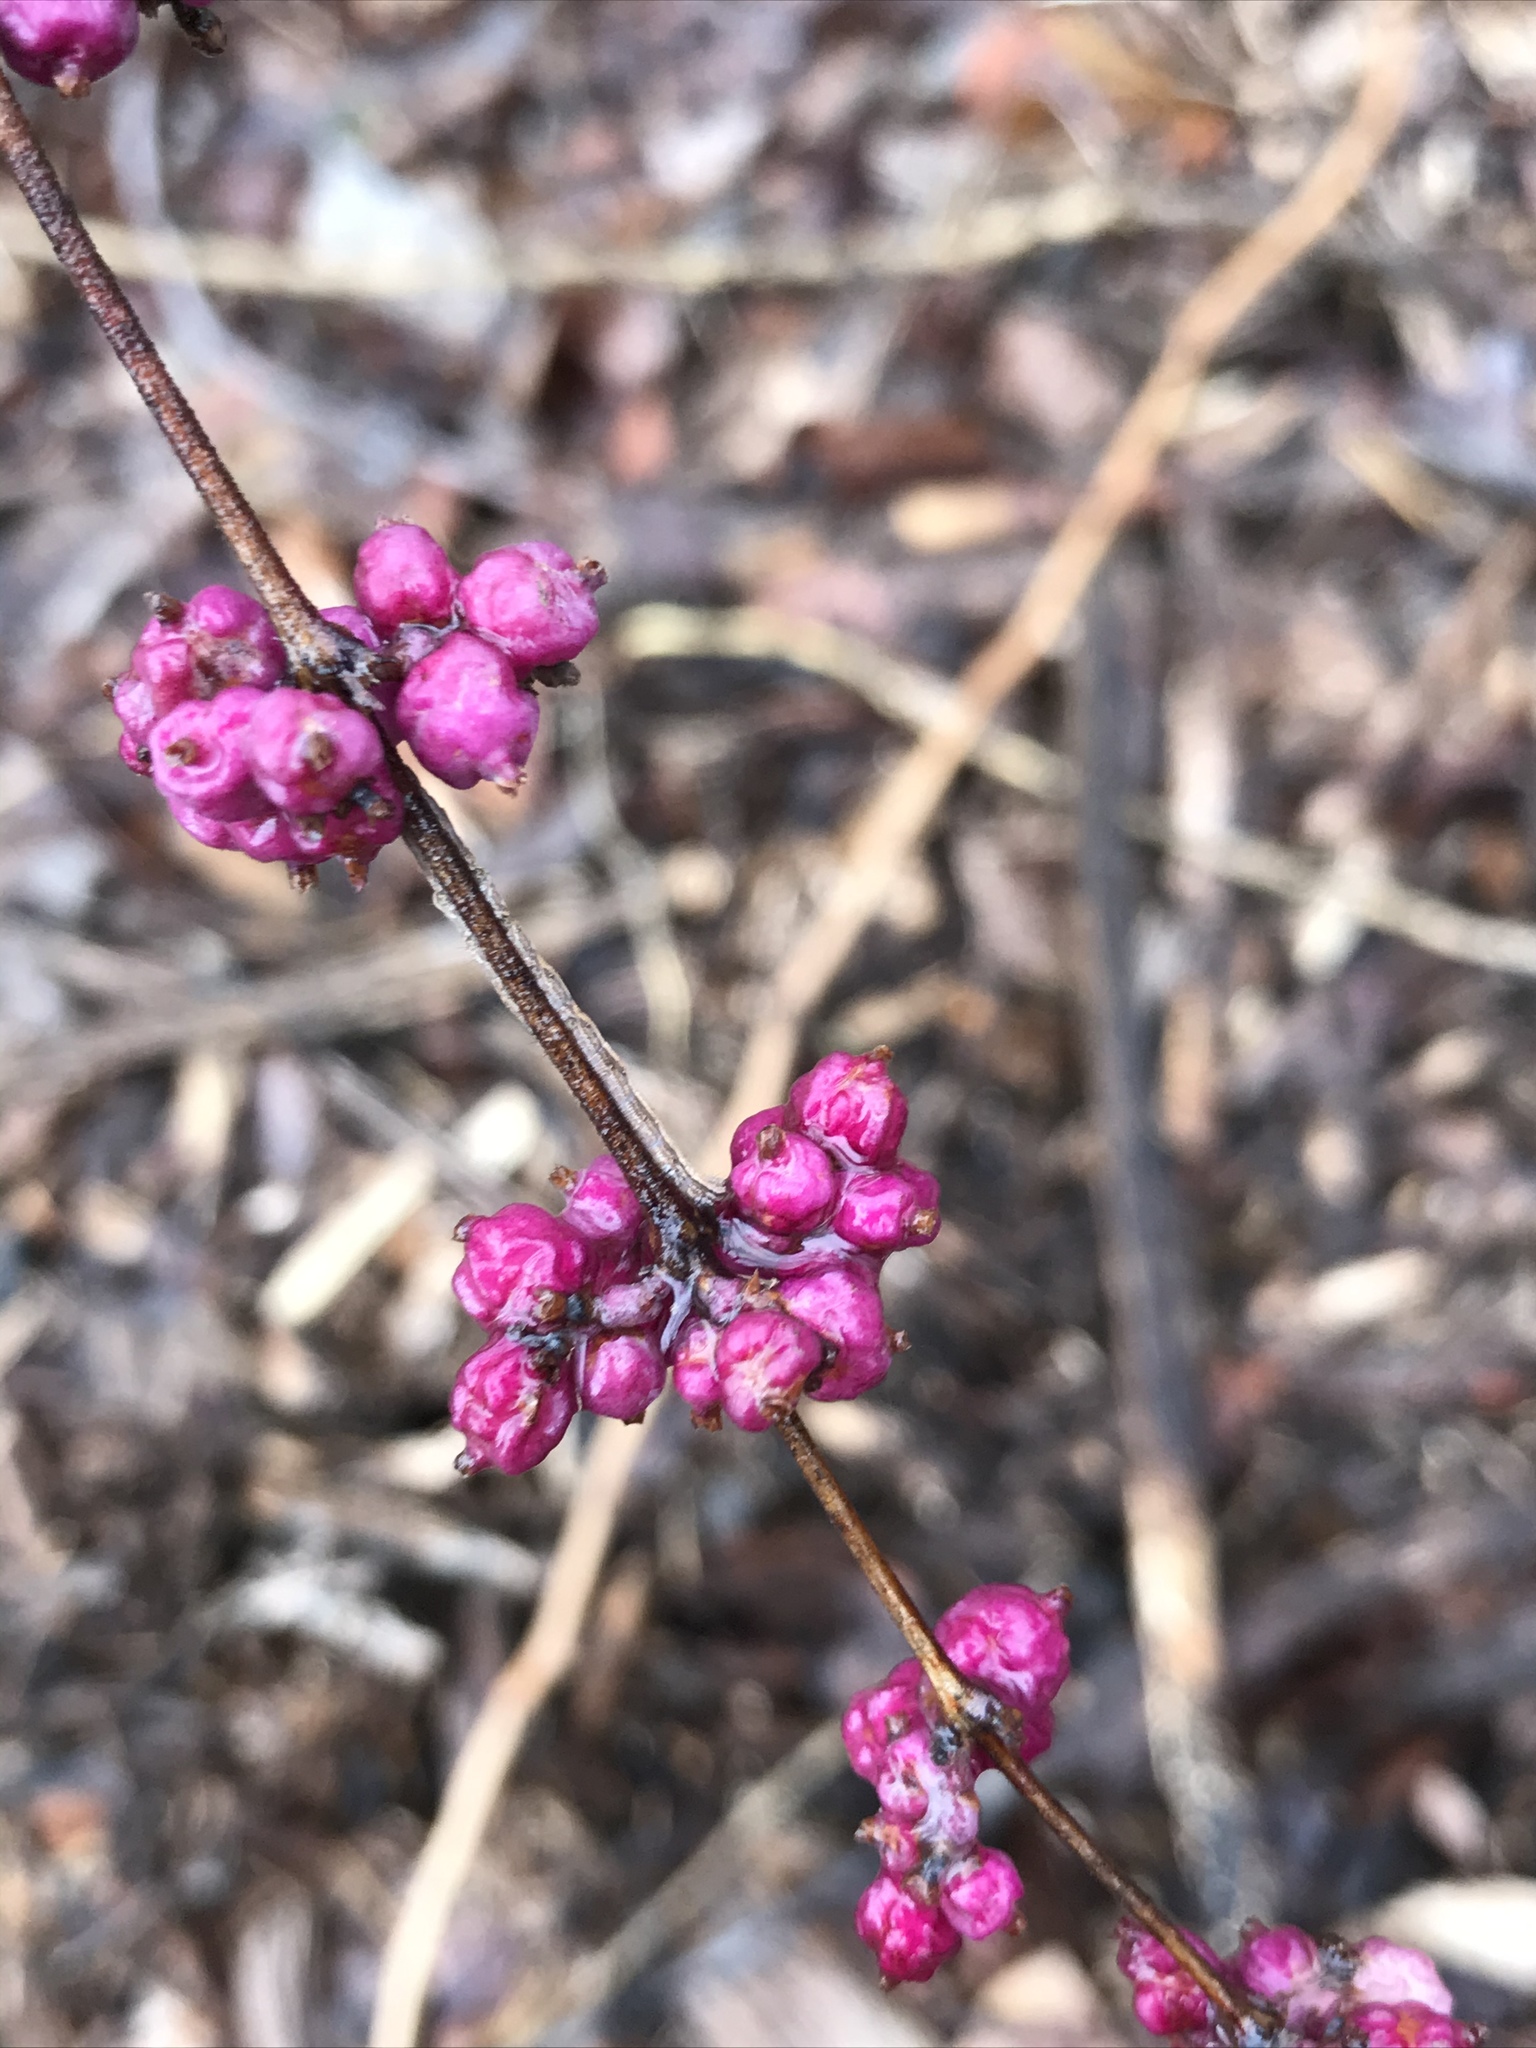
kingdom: Plantae
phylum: Tracheophyta
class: Magnoliopsida
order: Dipsacales
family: Caprifoliaceae
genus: Symphoricarpos
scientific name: Symphoricarpos orbiculatus
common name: Coralberry
